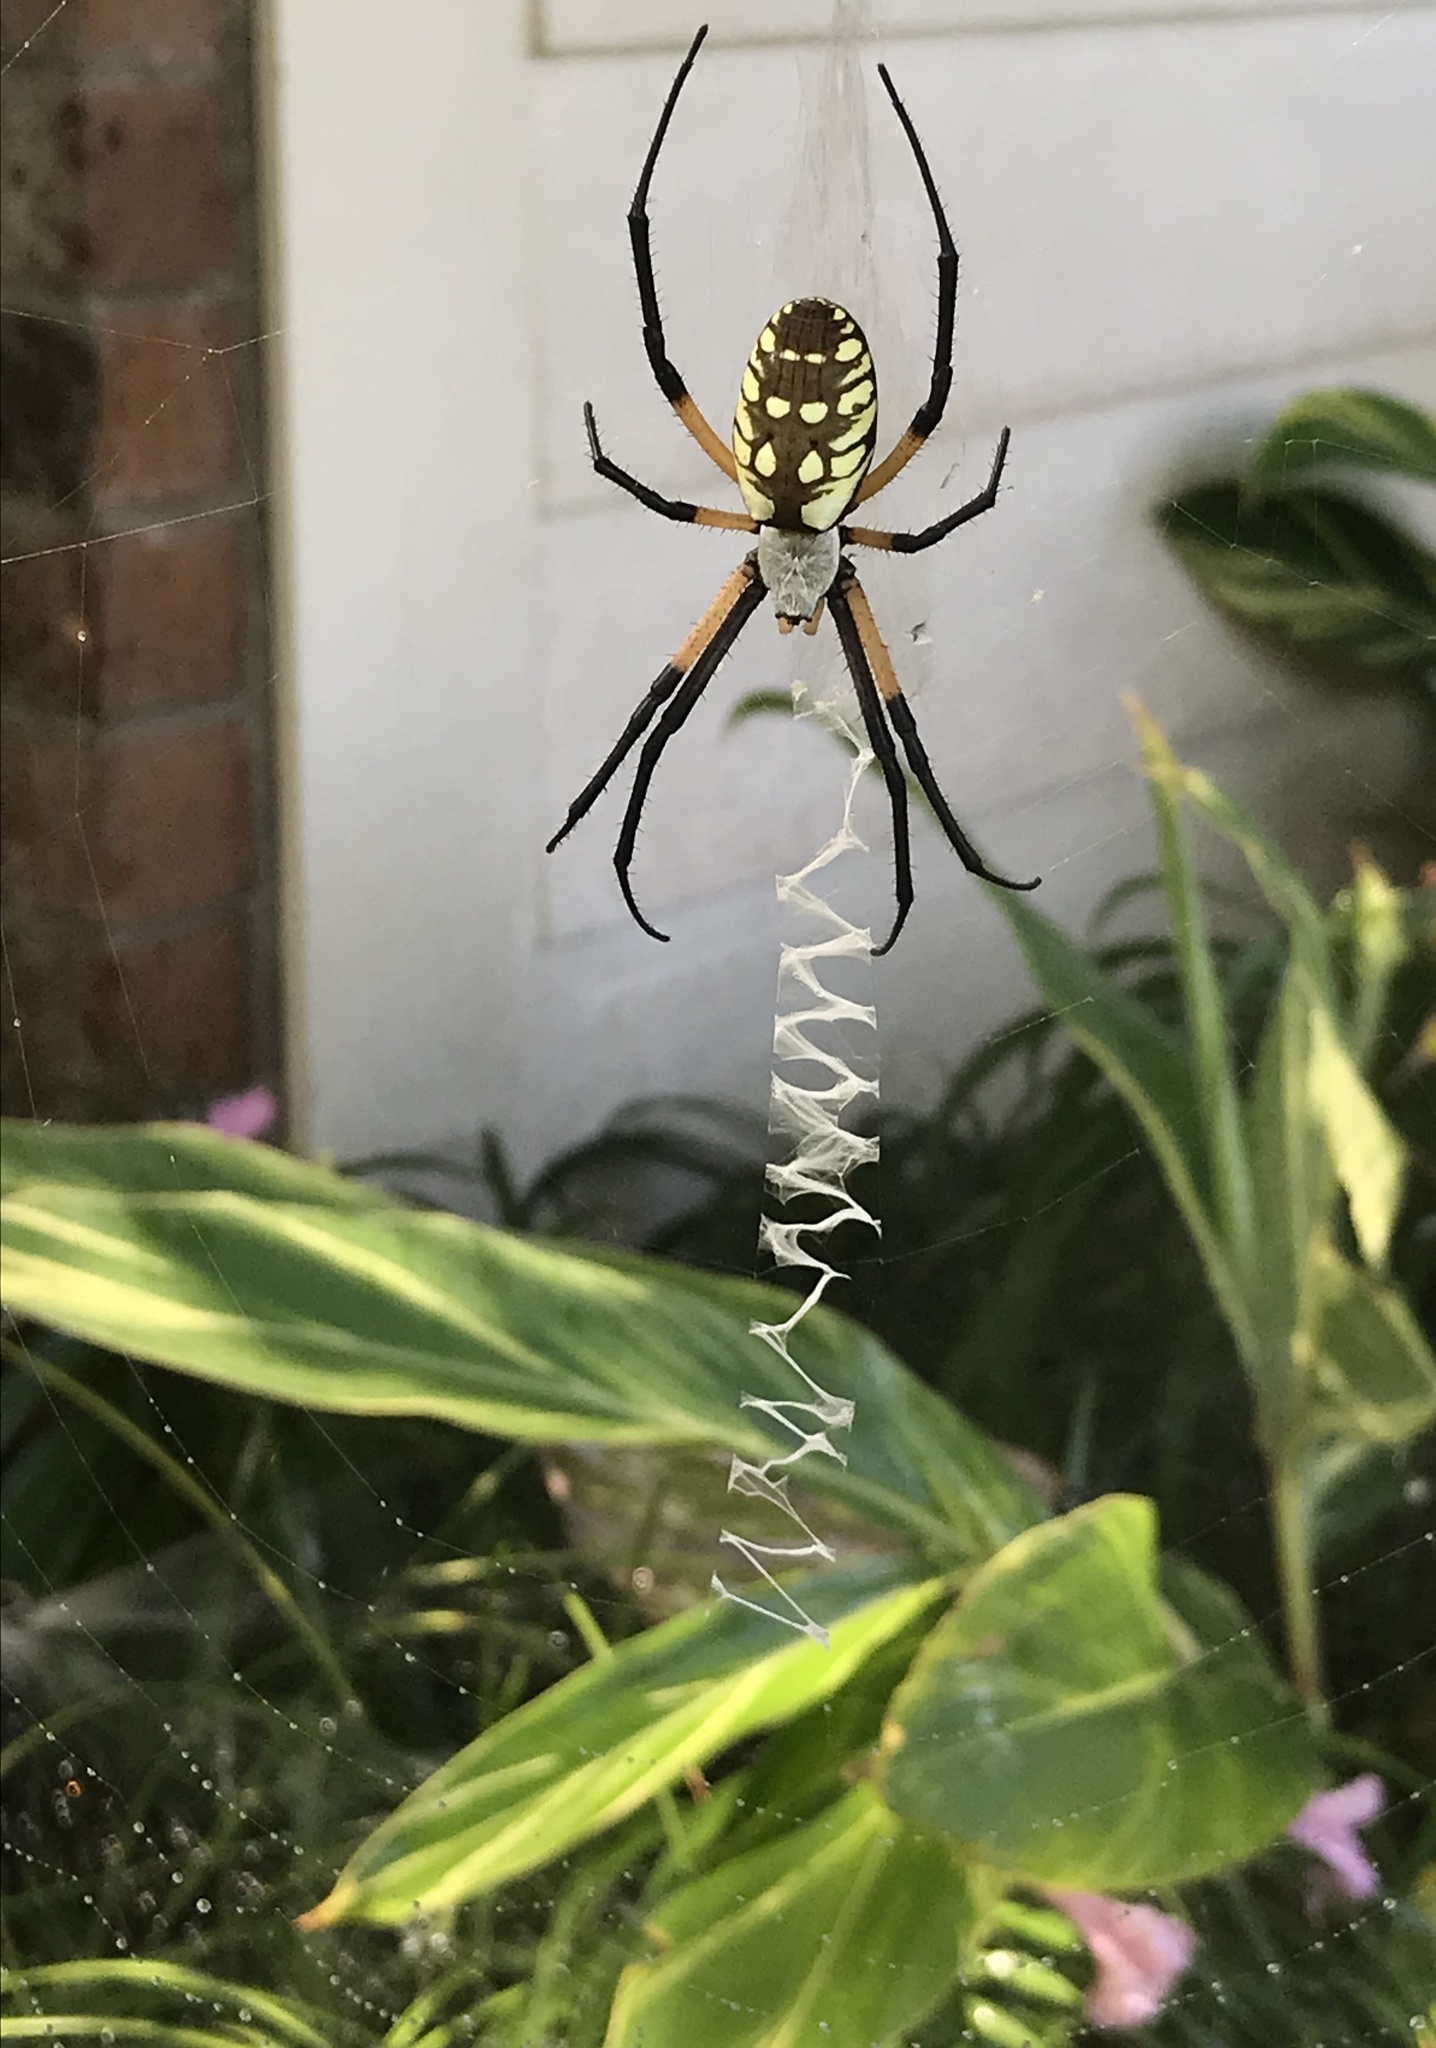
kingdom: Animalia
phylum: Arthropoda
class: Arachnida
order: Araneae
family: Araneidae
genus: Argiope
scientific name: Argiope aurantia
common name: Orb weavers
